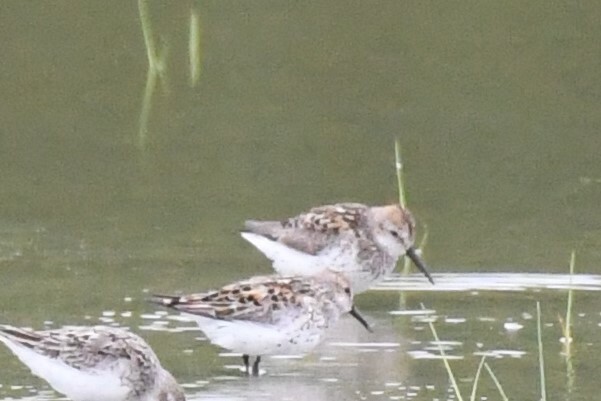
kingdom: Animalia
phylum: Chordata
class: Aves
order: Charadriiformes
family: Scolopacidae
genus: Calidris
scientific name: Calidris mauri
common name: Western sandpiper
